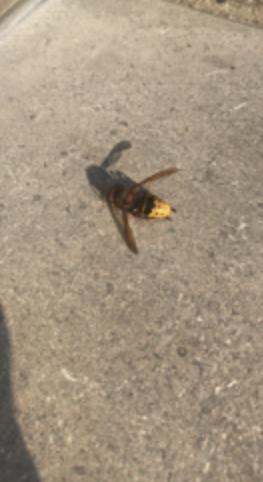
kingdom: Animalia
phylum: Arthropoda
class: Insecta
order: Hymenoptera
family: Vespidae
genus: Vespa
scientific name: Vespa crabro
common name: Hornet
